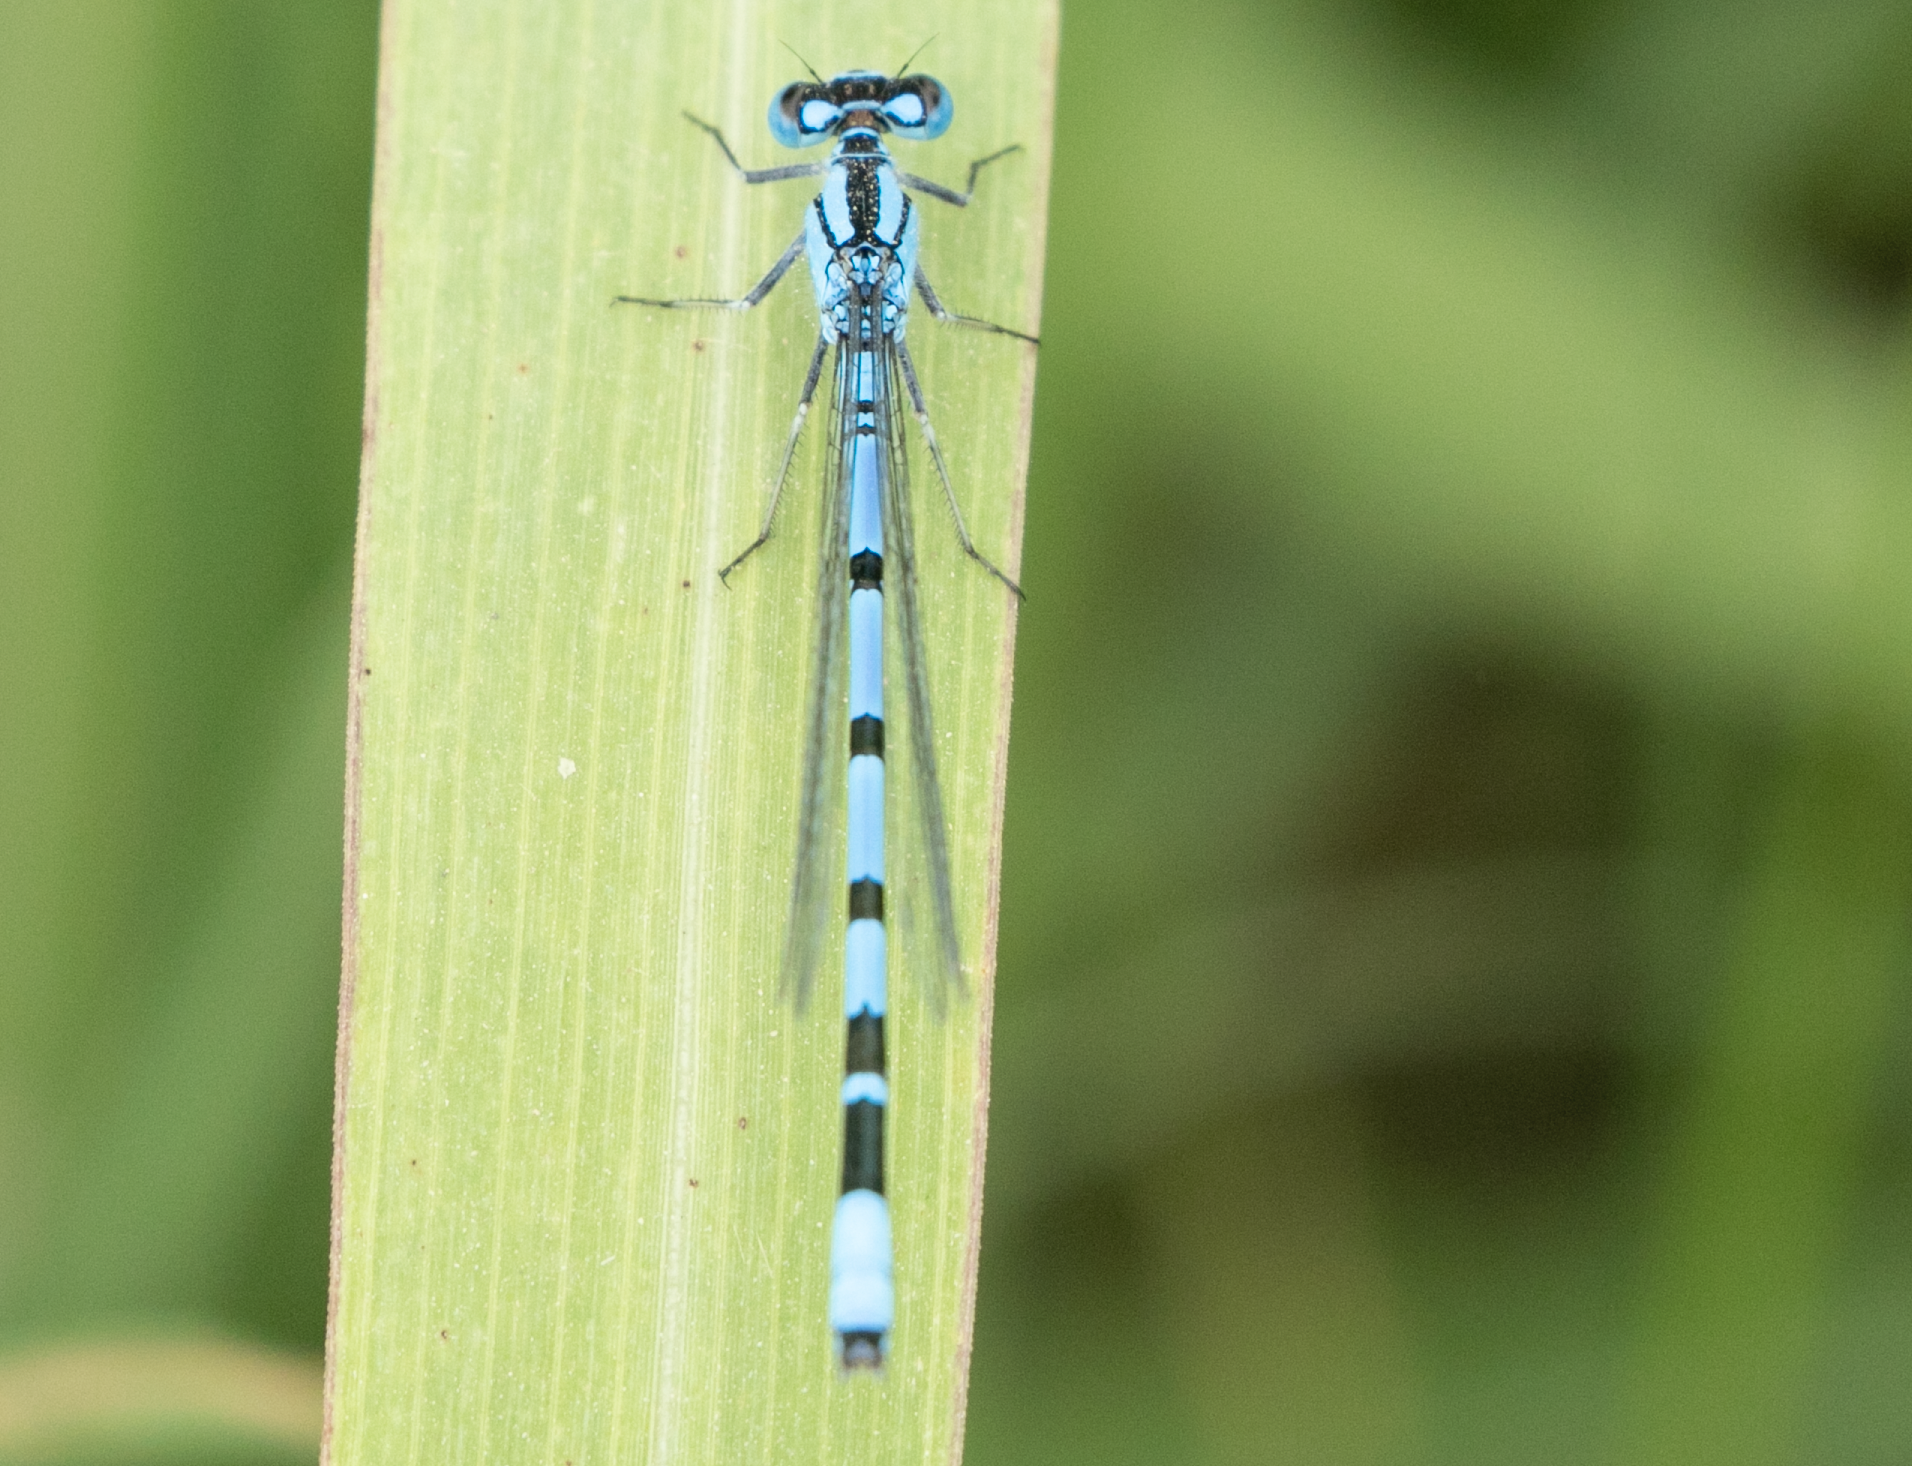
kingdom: Animalia
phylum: Arthropoda
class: Insecta
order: Odonata
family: Coenagrionidae
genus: Enallagma
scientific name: Enallagma cyathigerum
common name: Common blue damselfly
